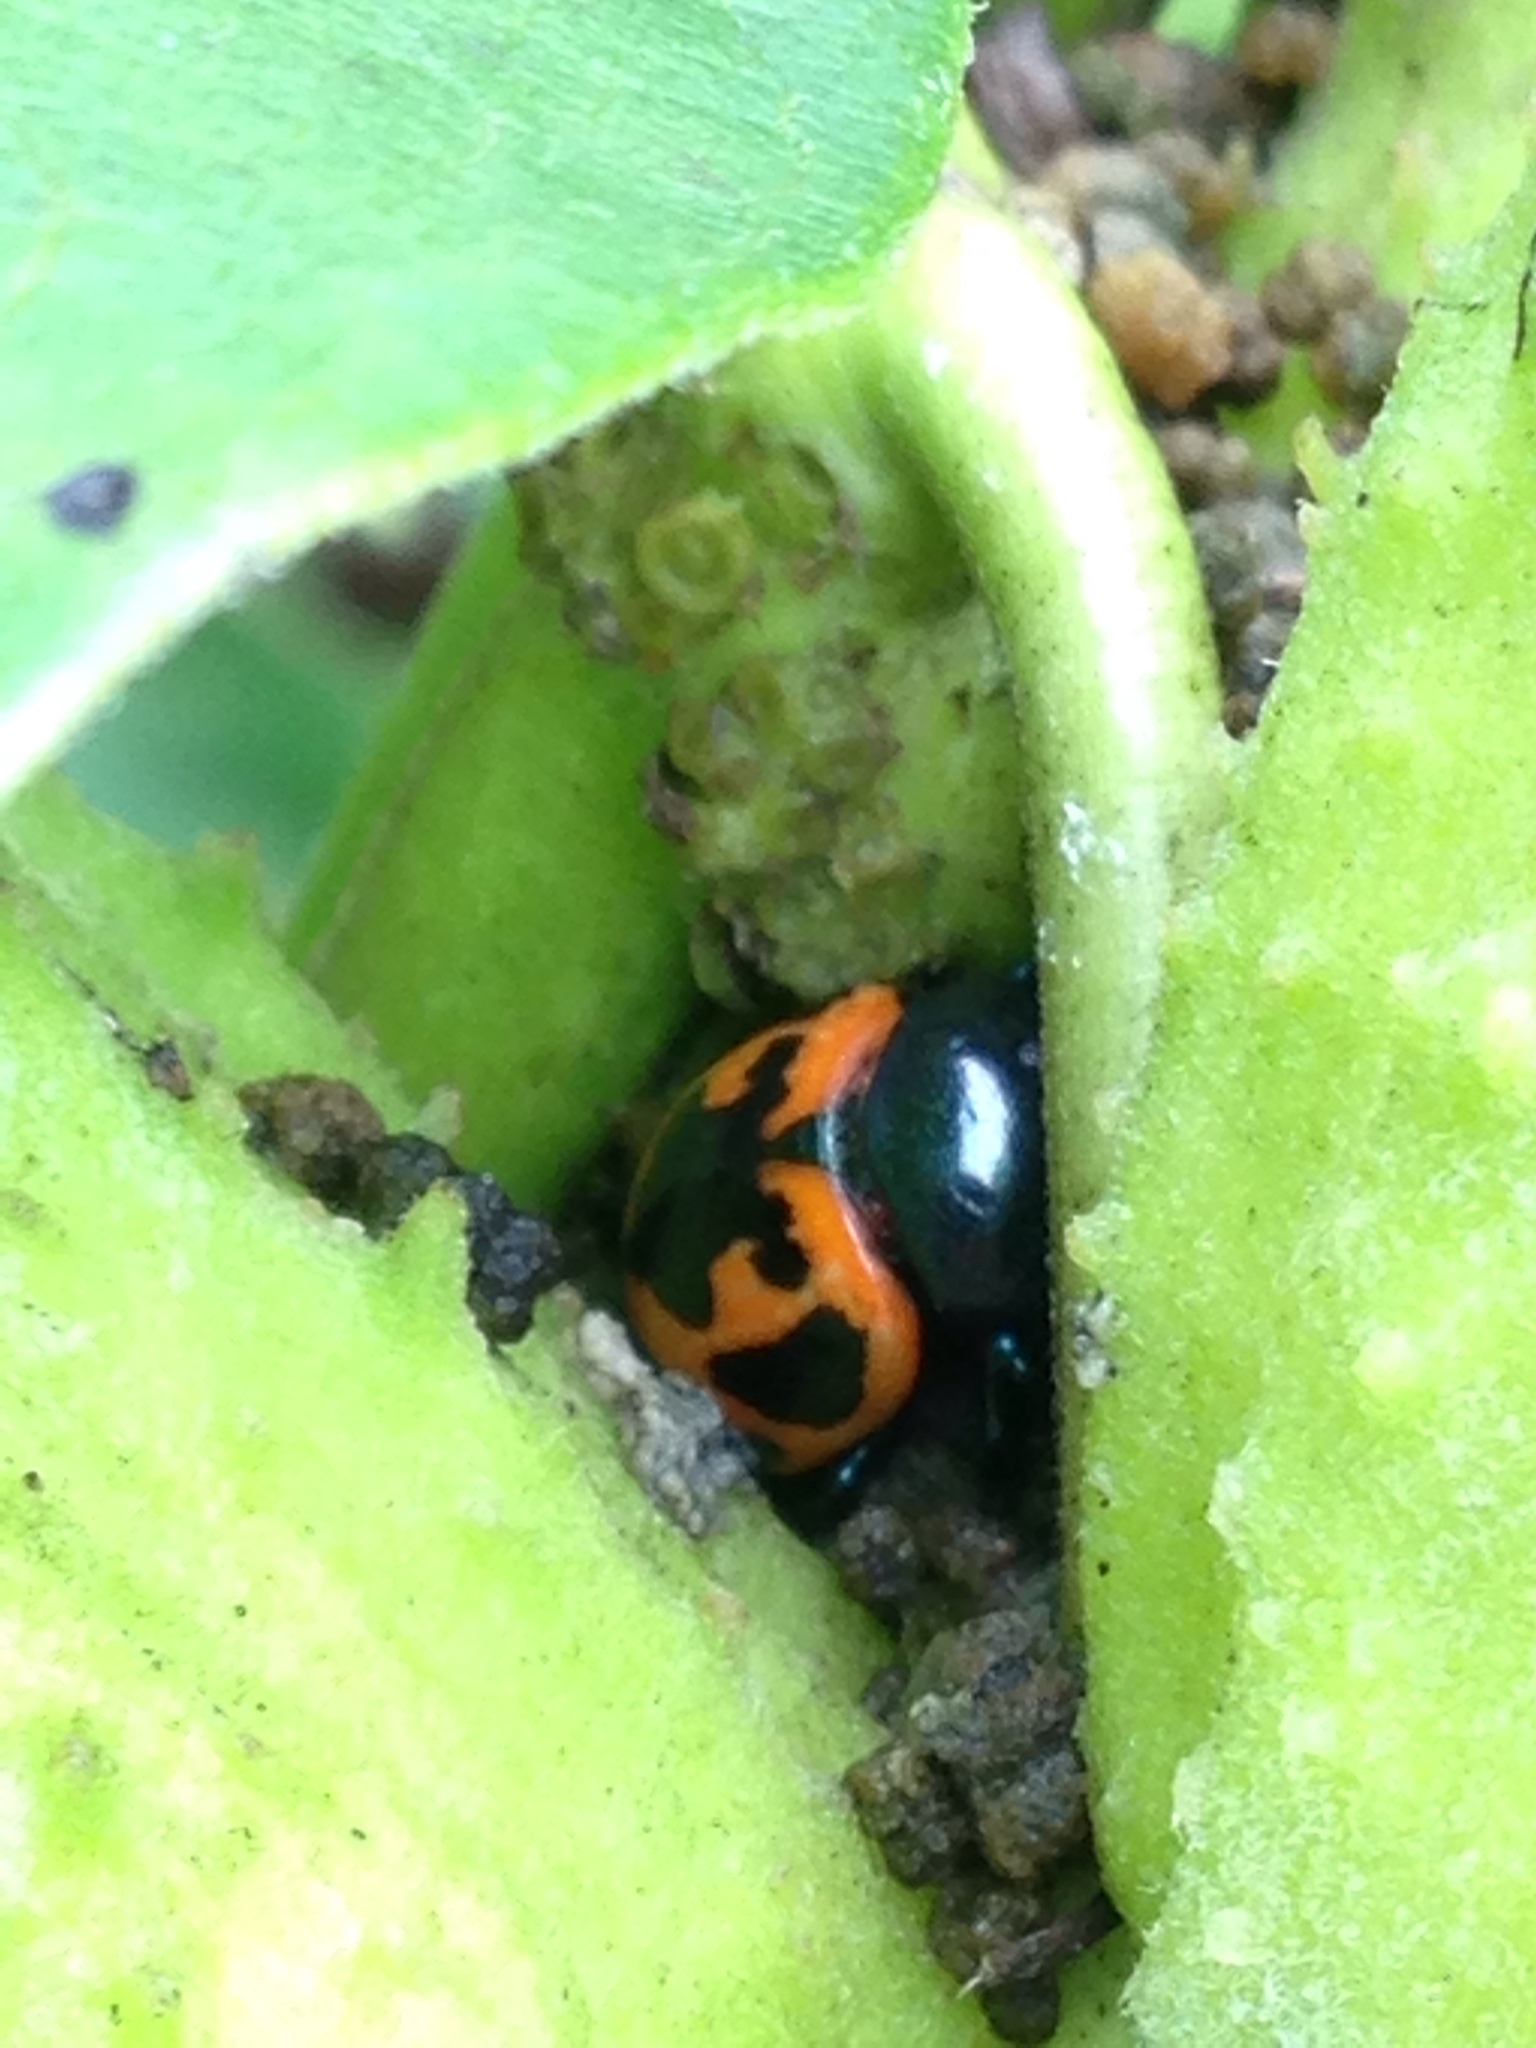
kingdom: Animalia
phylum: Arthropoda
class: Insecta
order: Coleoptera
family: Chrysomelidae
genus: Labidomera
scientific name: Labidomera clivicollis
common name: Swamp milkweed leaf beetle
